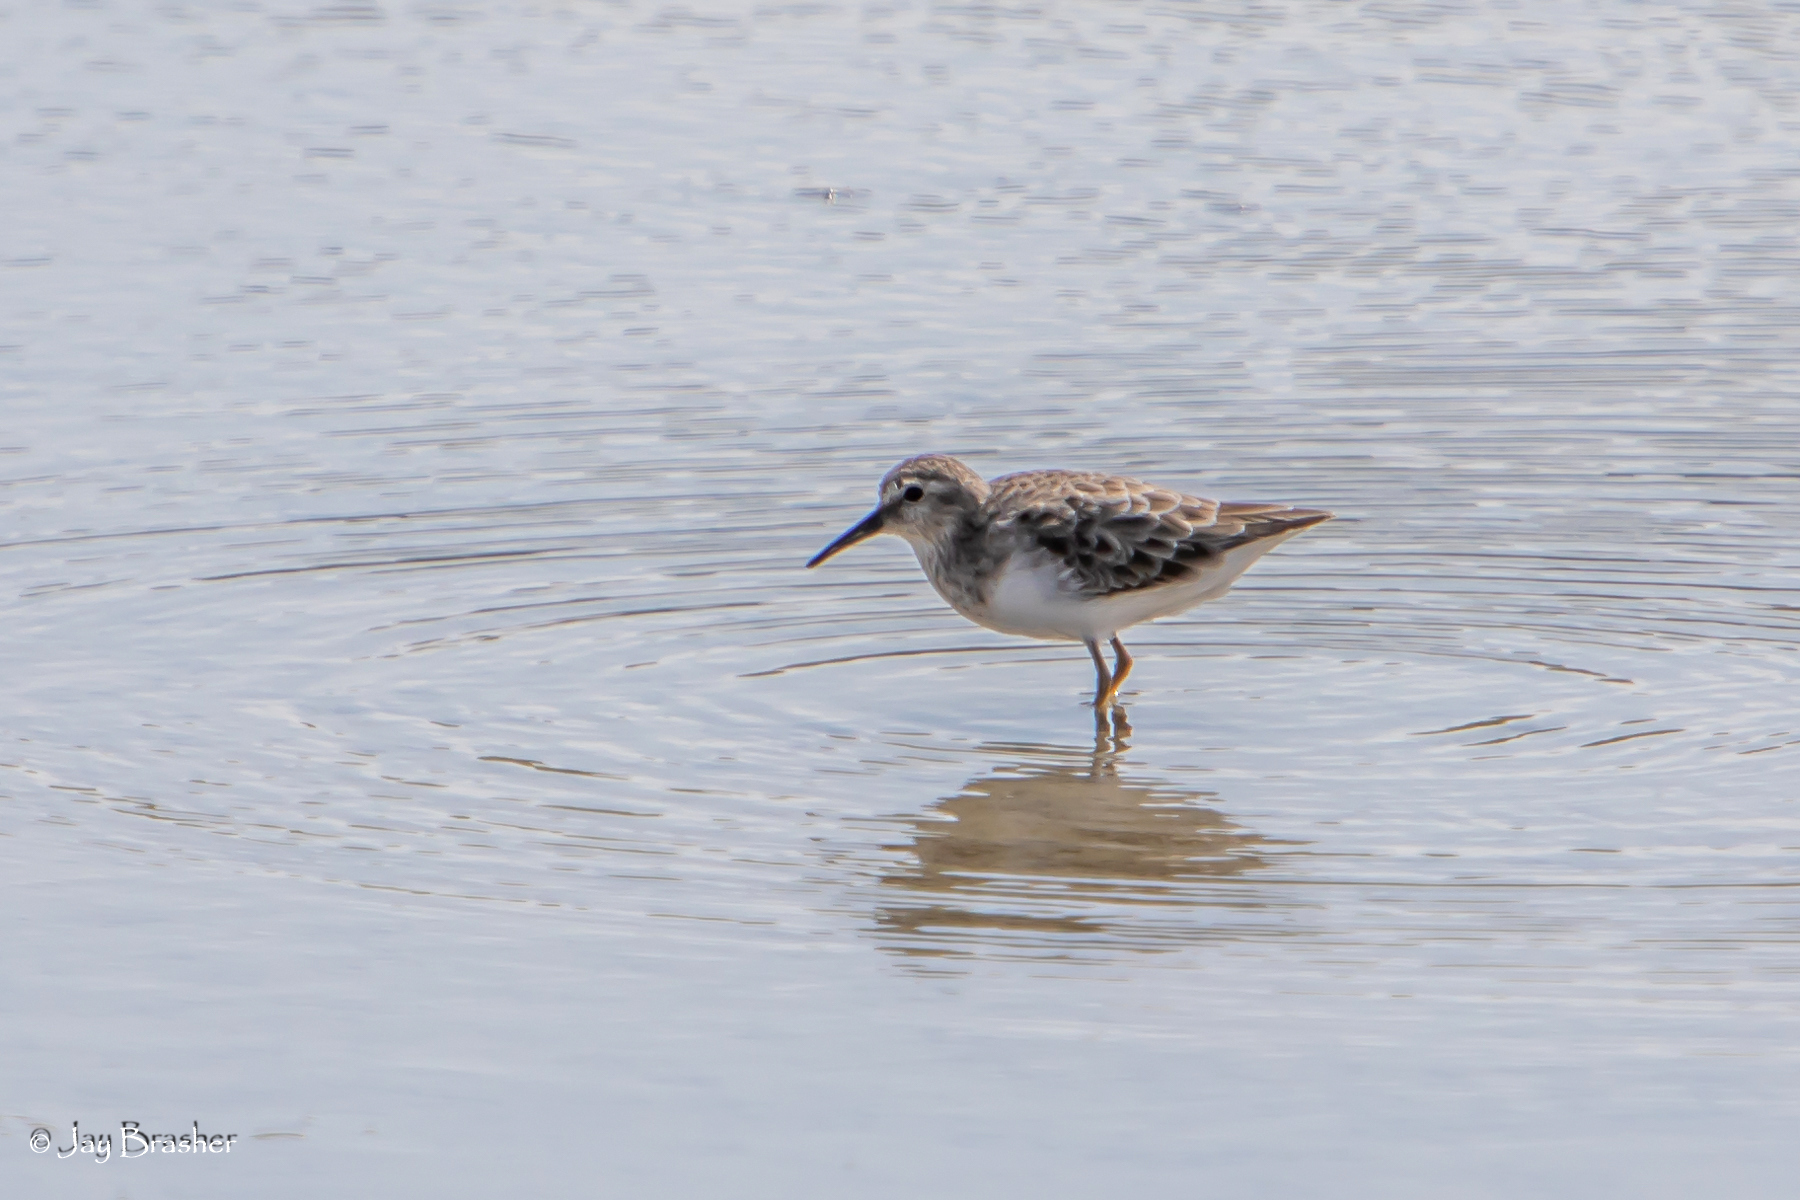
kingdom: Animalia
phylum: Chordata
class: Aves
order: Charadriiformes
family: Scolopacidae
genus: Calidris
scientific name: Calidris minutilla
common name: Least sandpiper
